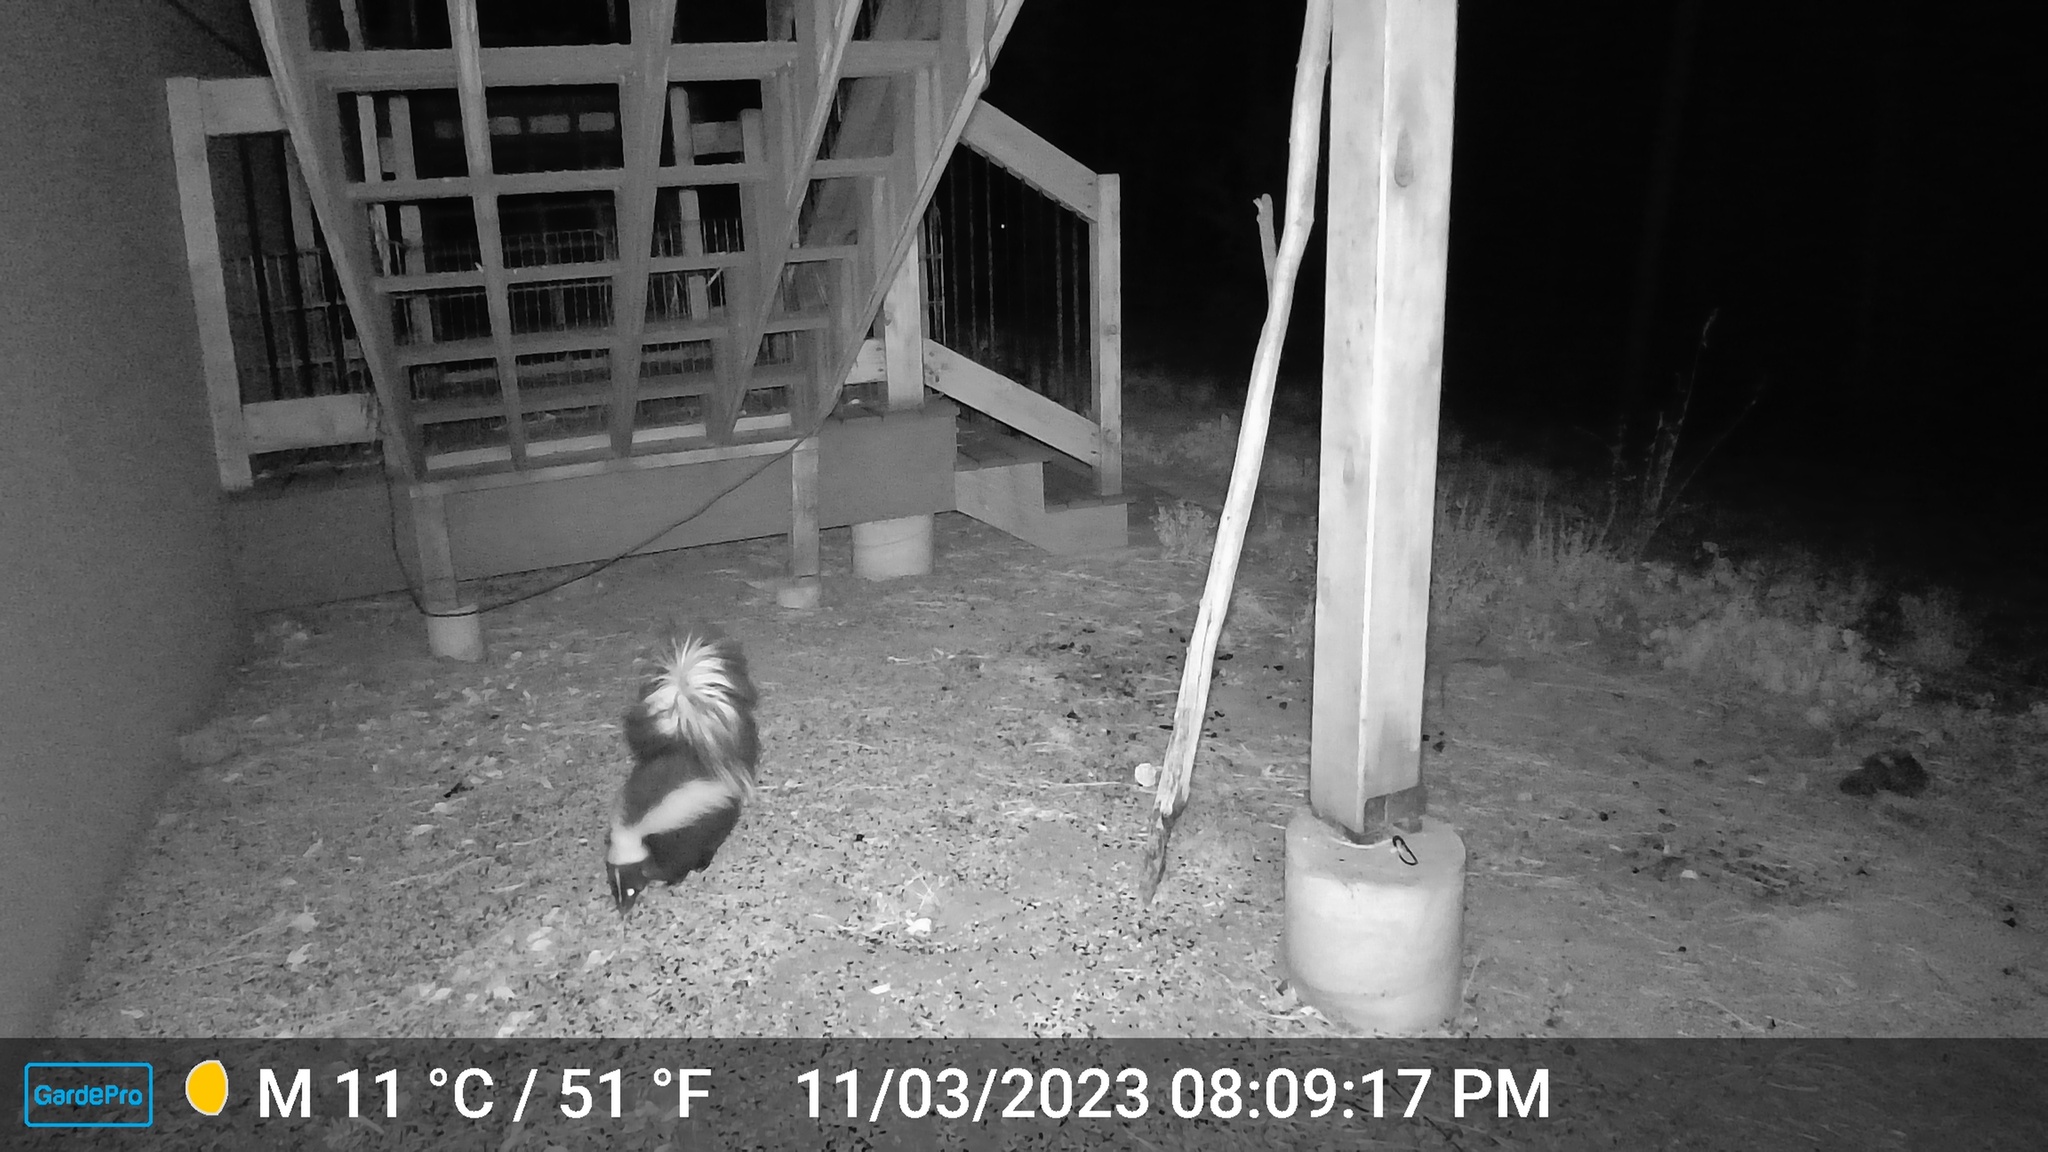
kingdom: Animalia
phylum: Chordata
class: Mammalia
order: Carnivora
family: Mephitidae
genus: Mephitis
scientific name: Mephitis mephitis
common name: Striped skunk
